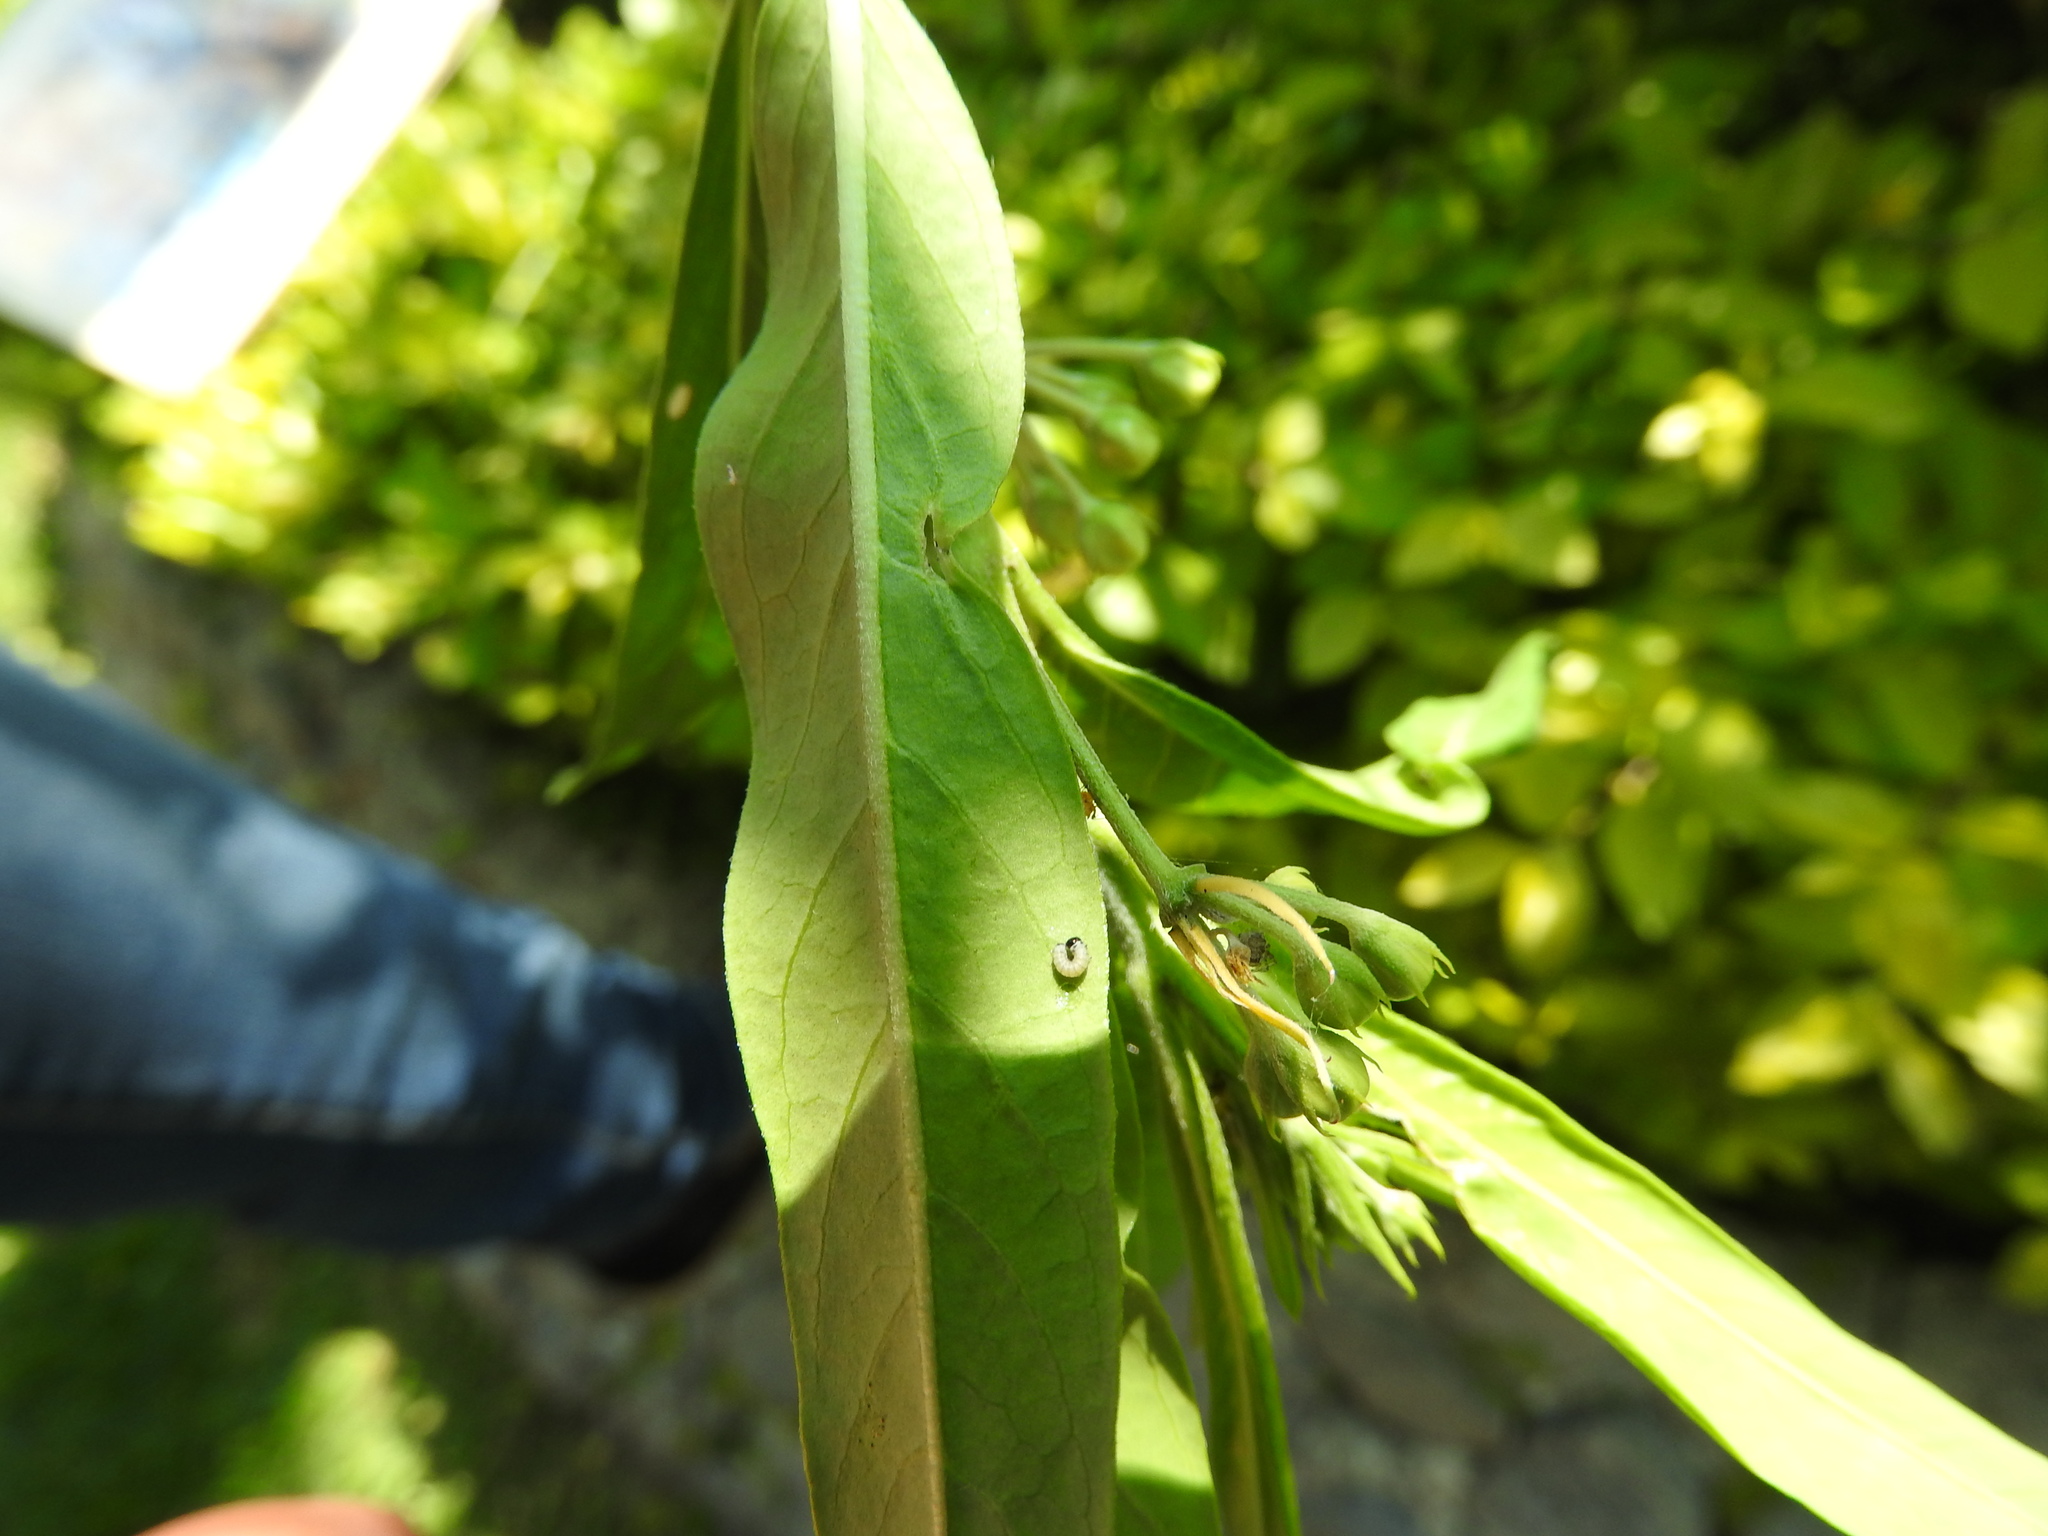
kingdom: Animalia
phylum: Arthropoda
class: Insecta
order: Lepidoptera
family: Nymphalidae
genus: Danaus
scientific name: Danaus plexippus
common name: Monarch
